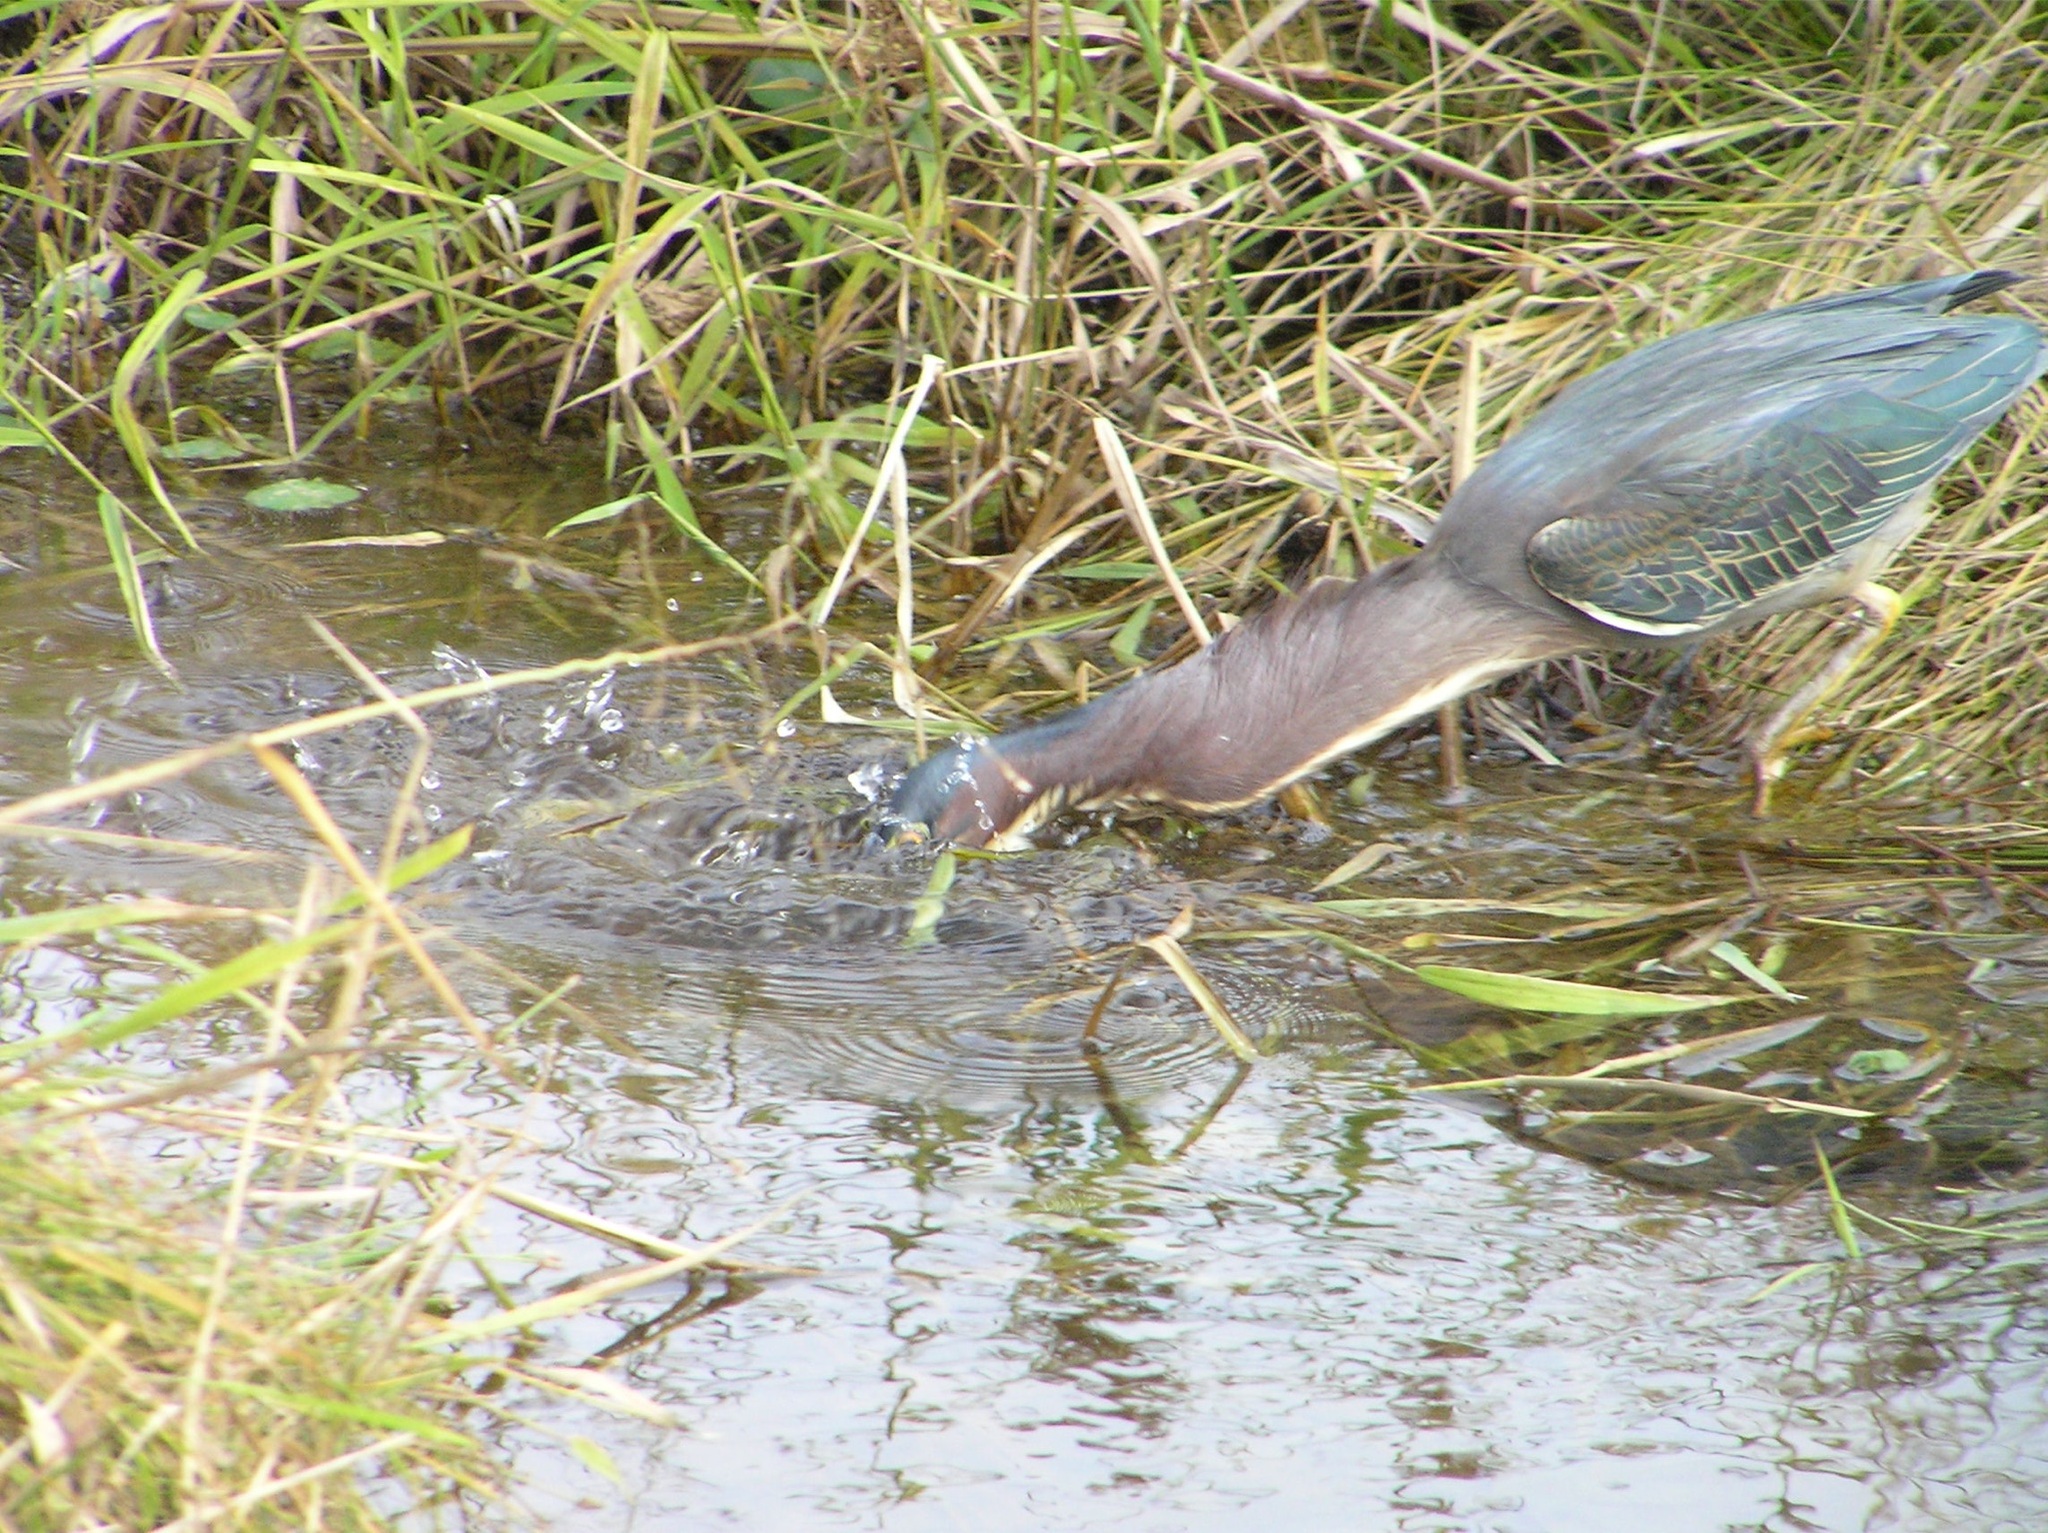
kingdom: Animalia
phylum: Chordata
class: Aves
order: Pelecaniformes
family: Ardeidae
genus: Butorides
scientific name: Butorides virescens
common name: Green heron
